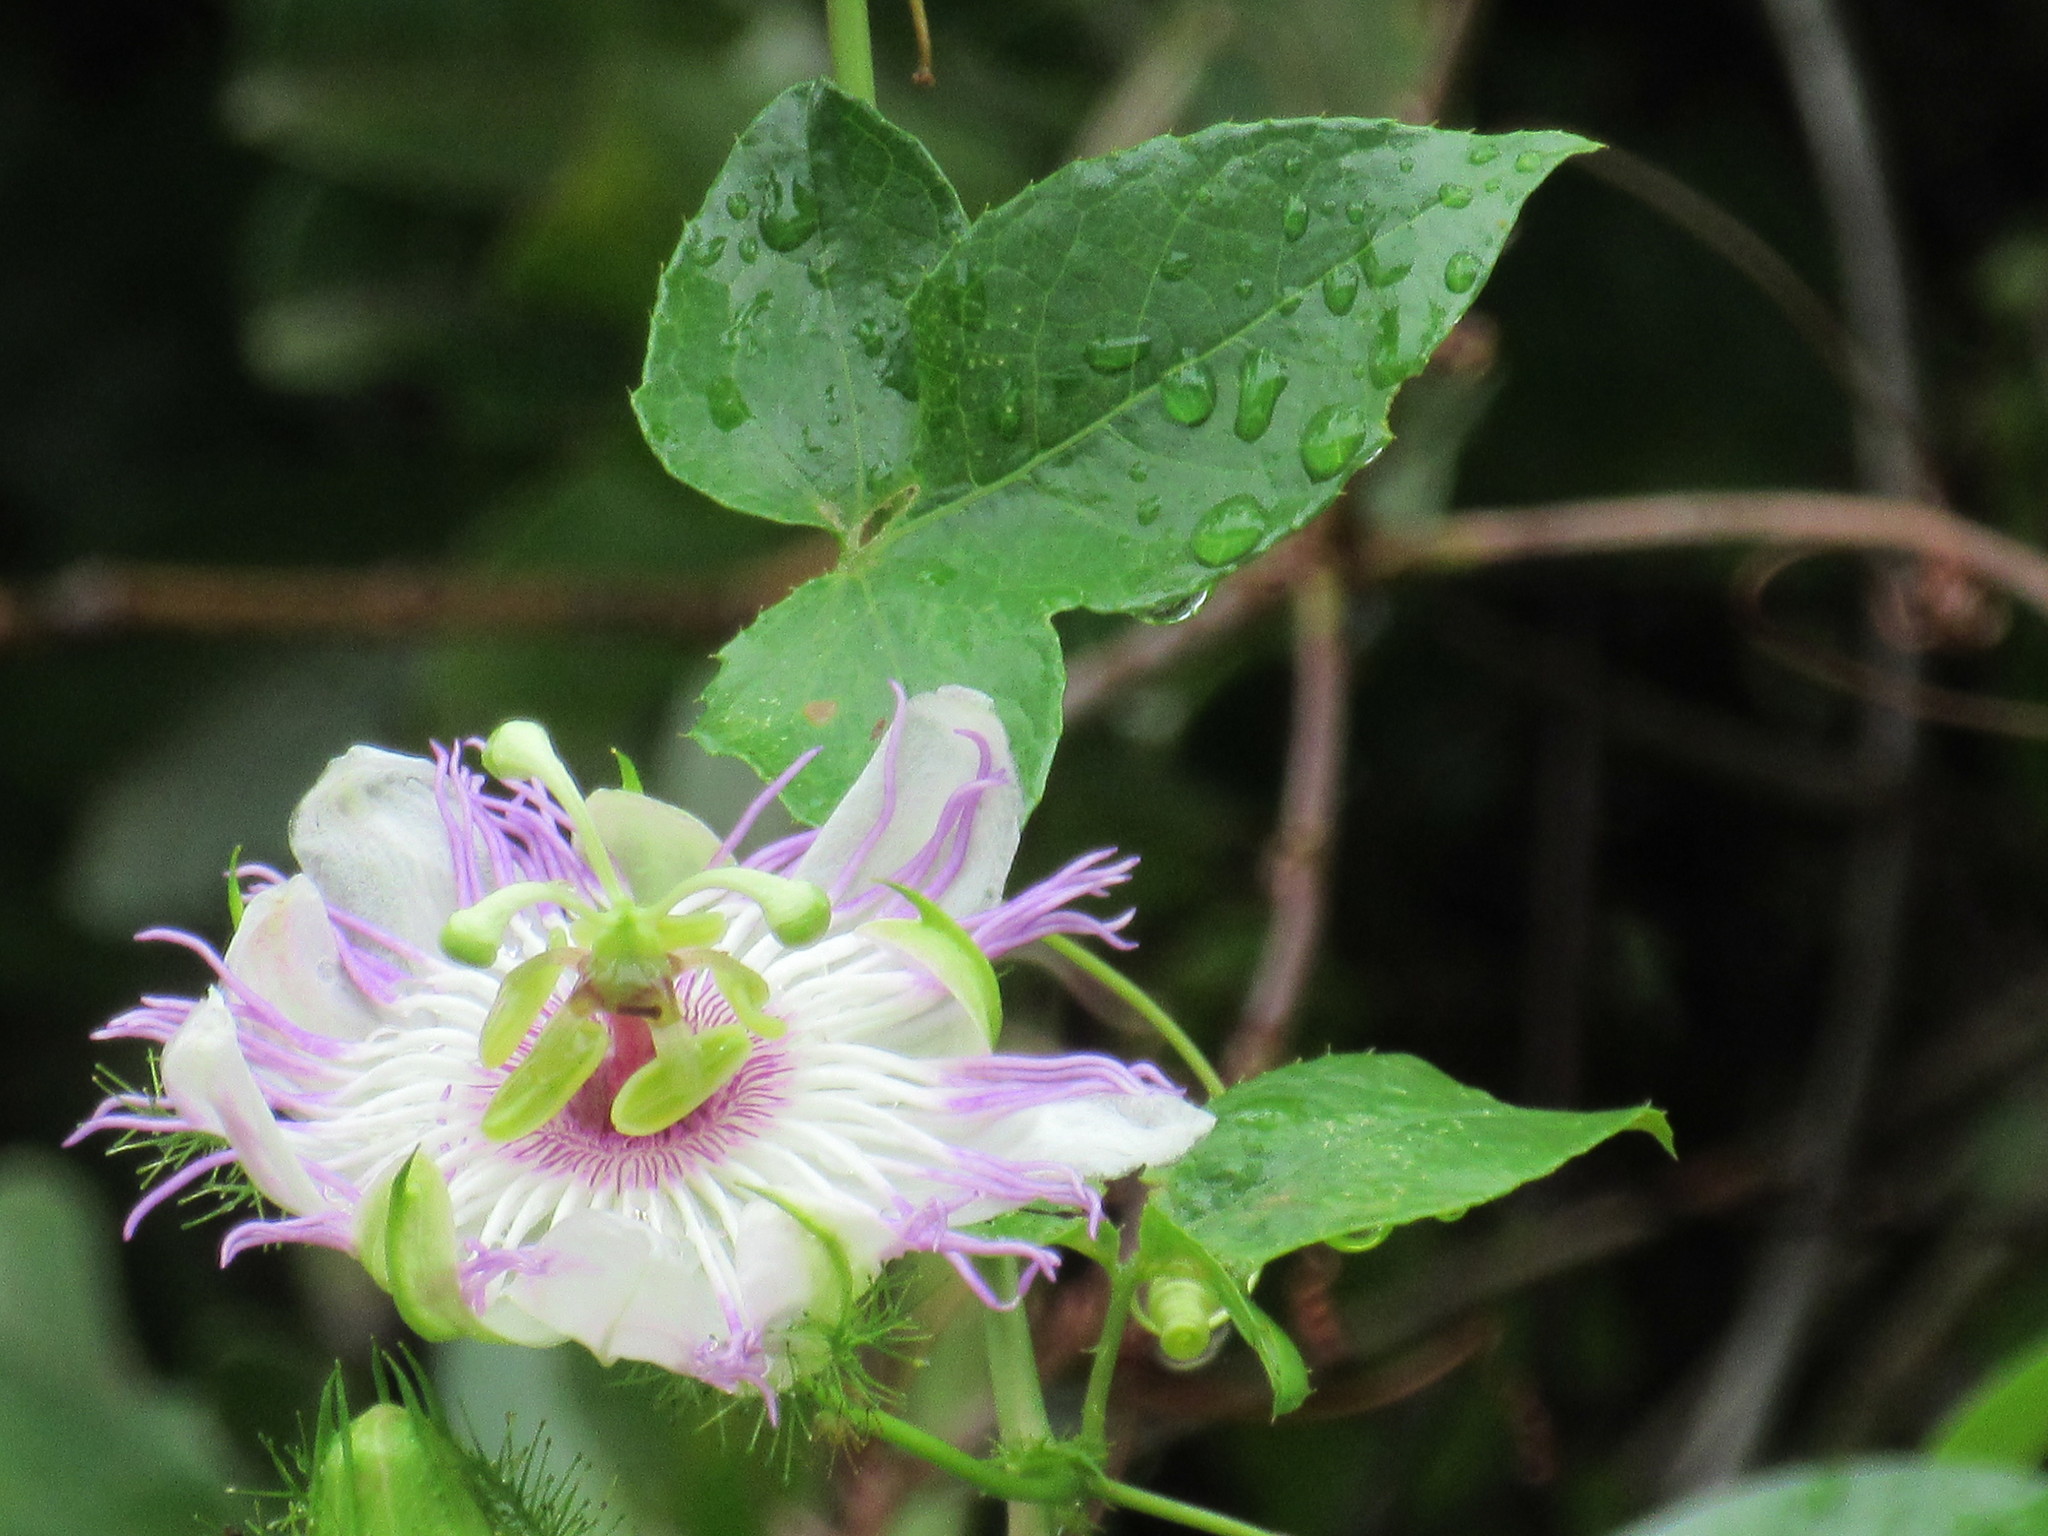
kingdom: Plantae
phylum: Tracheophyta
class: Magnoliopsida
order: Malpighiales
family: Passifloraceae
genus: Passiflora
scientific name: Passiflora foetida
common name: Fetid passionflower
